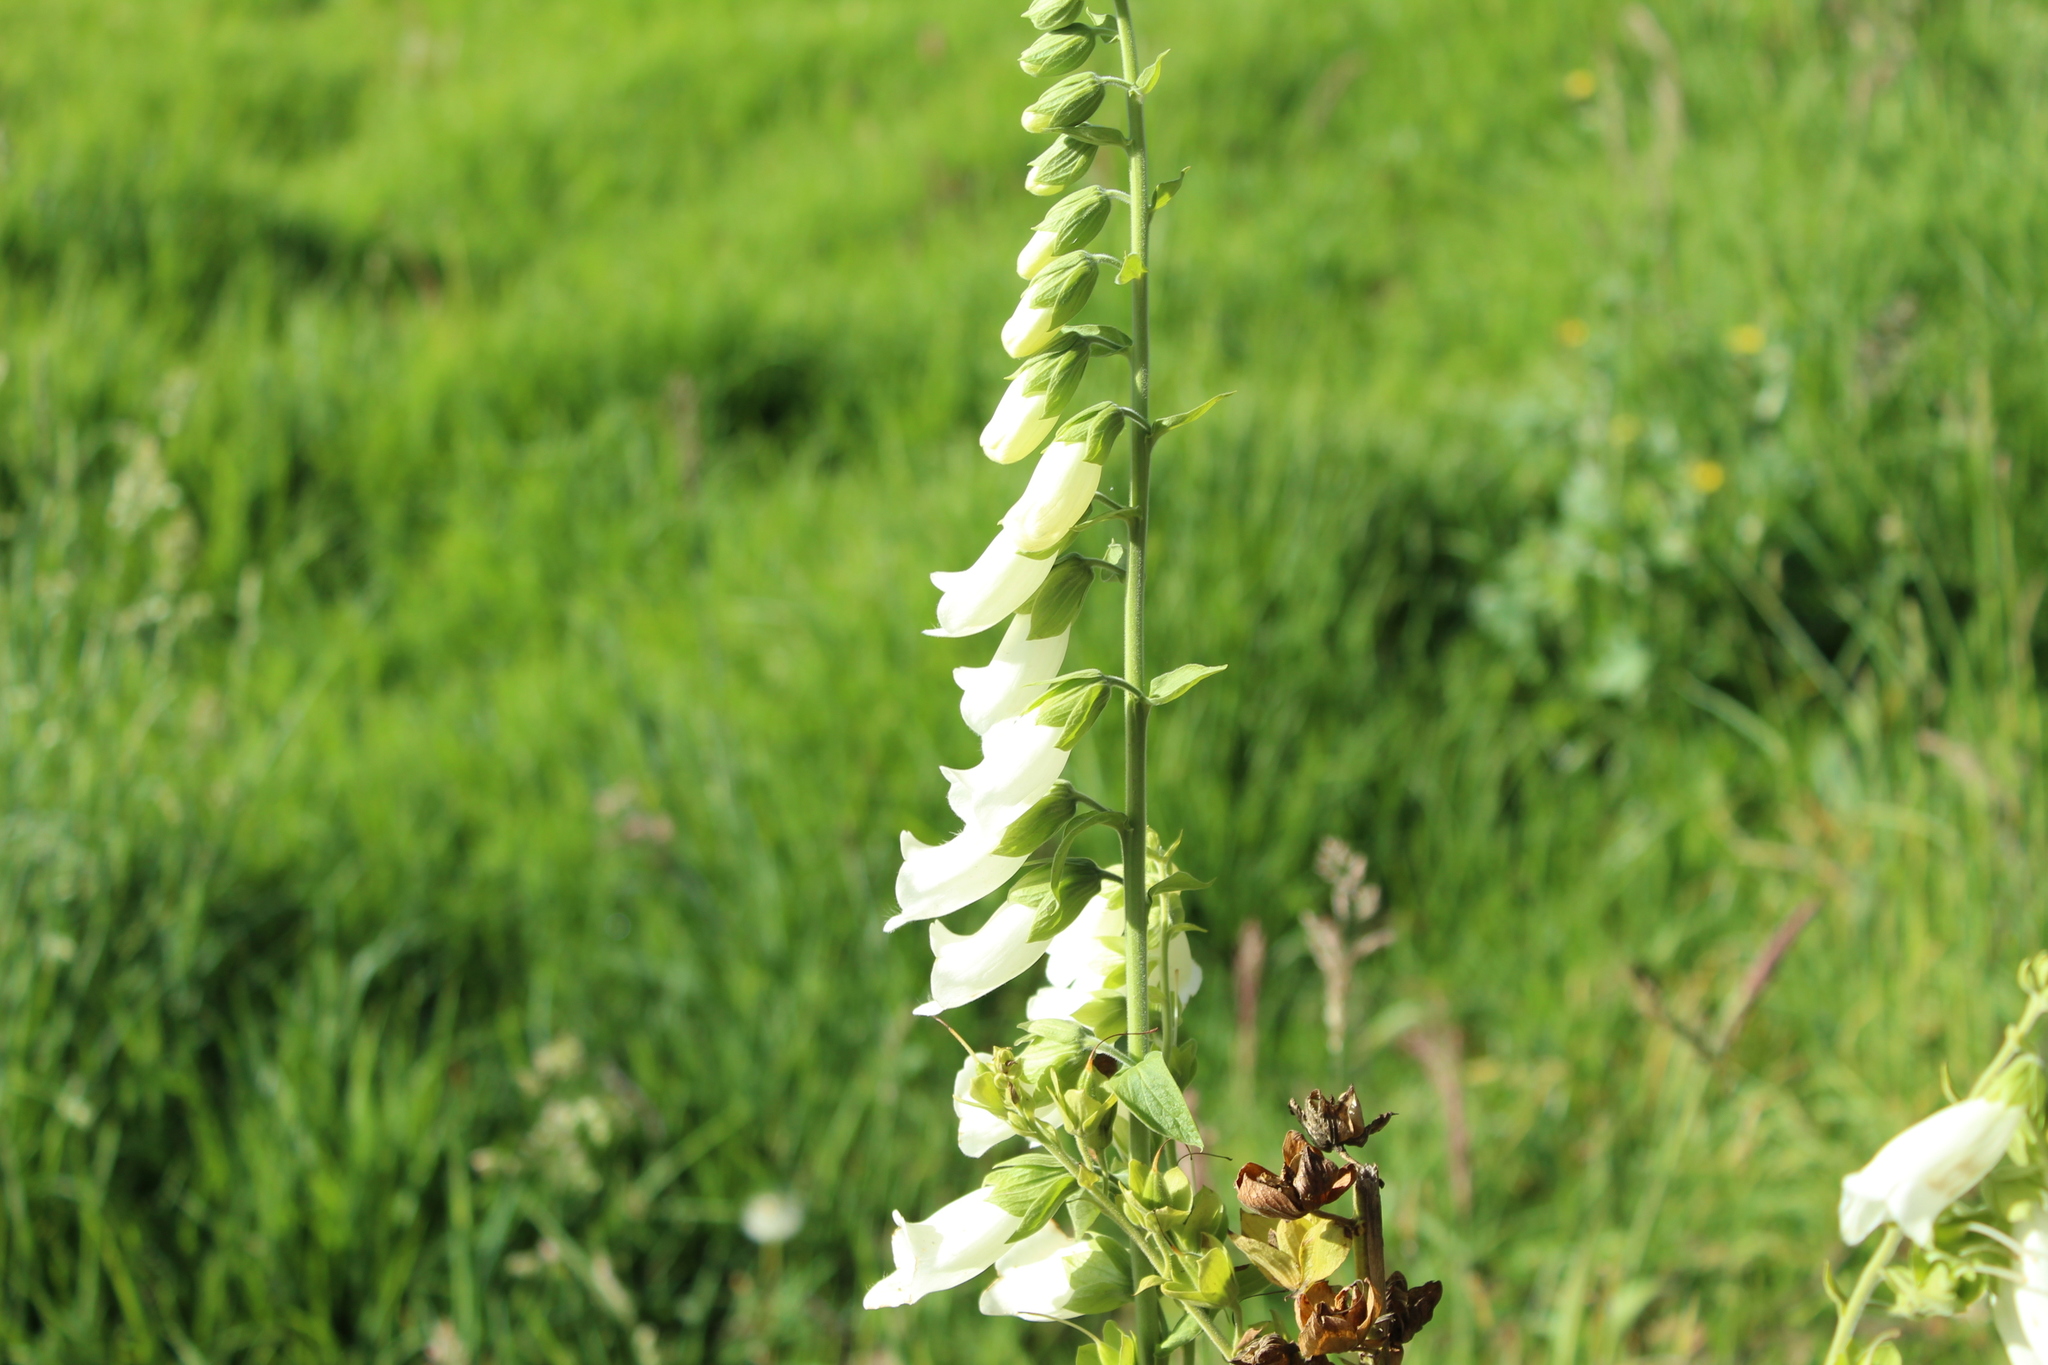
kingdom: Plantae
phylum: Tracheophyta
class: Magnoliopsida
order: Lamiales
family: Plantaginaceae
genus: Digitalis
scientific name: Digitalis purpurea
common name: Foxglove
